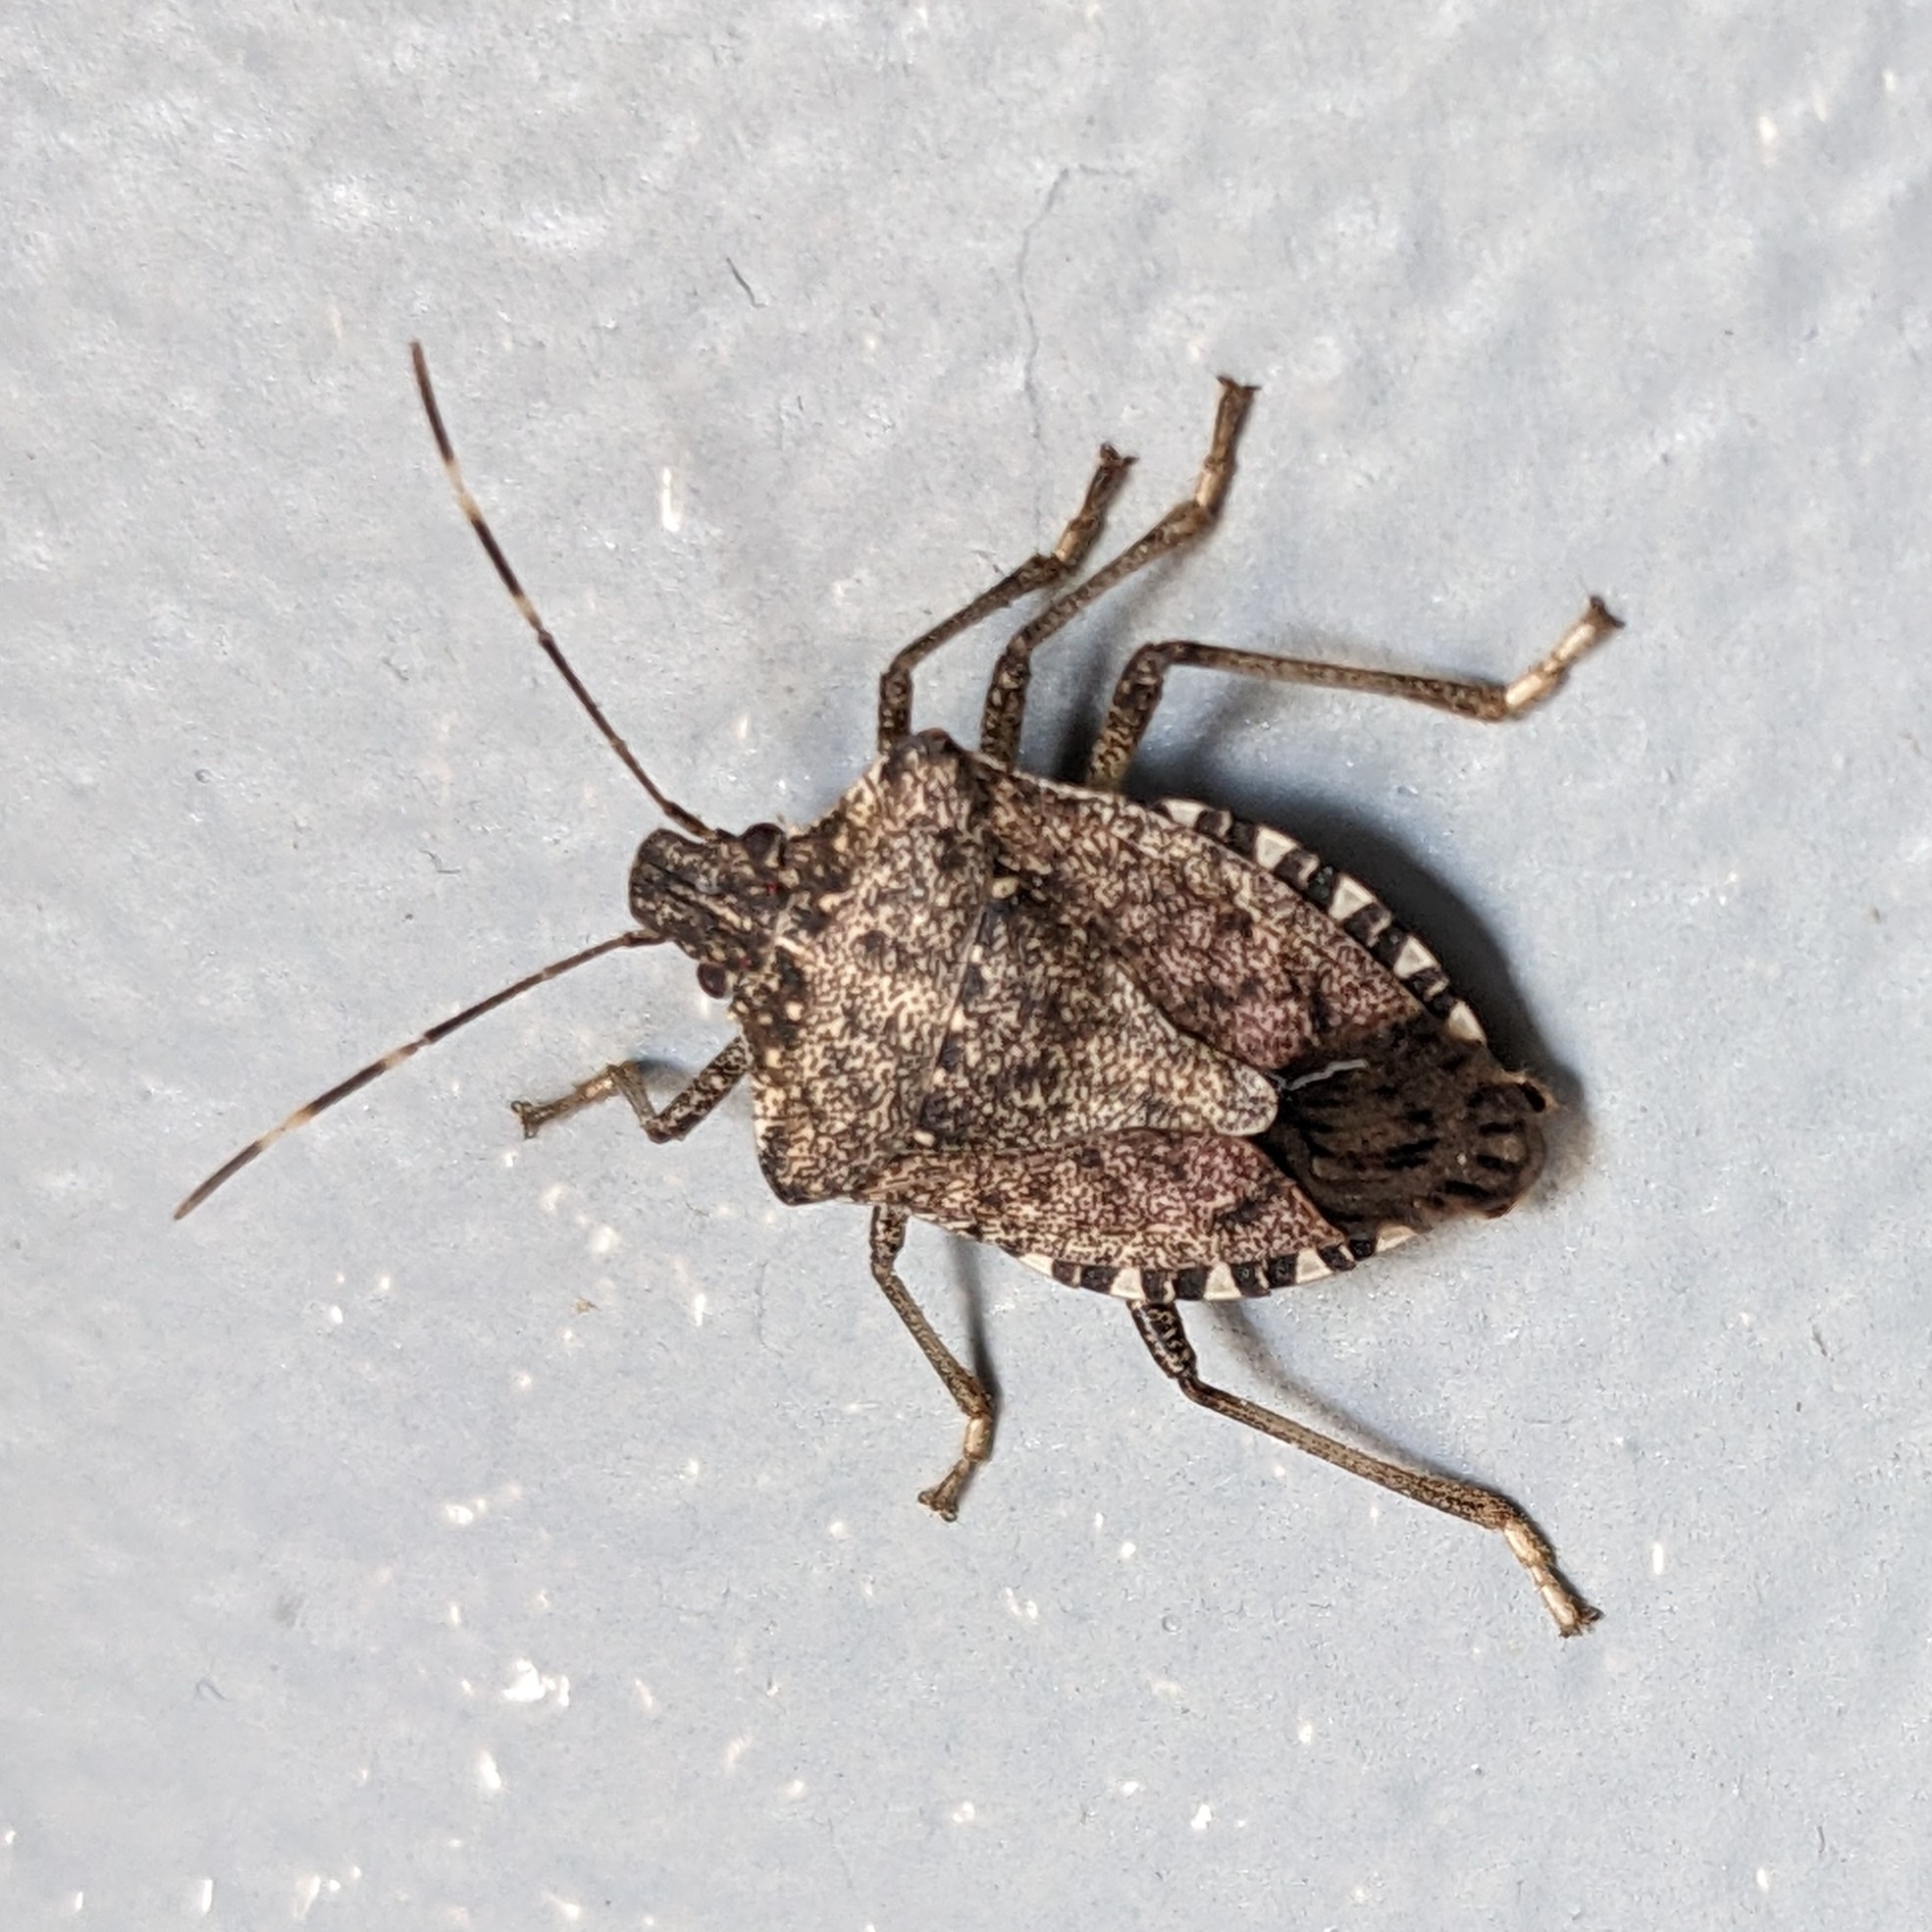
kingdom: Animalia
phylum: Arthropoda
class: Insecta
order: Hemiptera
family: Pentatomidae
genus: Halyomorpha
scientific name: Halyomorpha halys
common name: Brown marmorated stink bug
